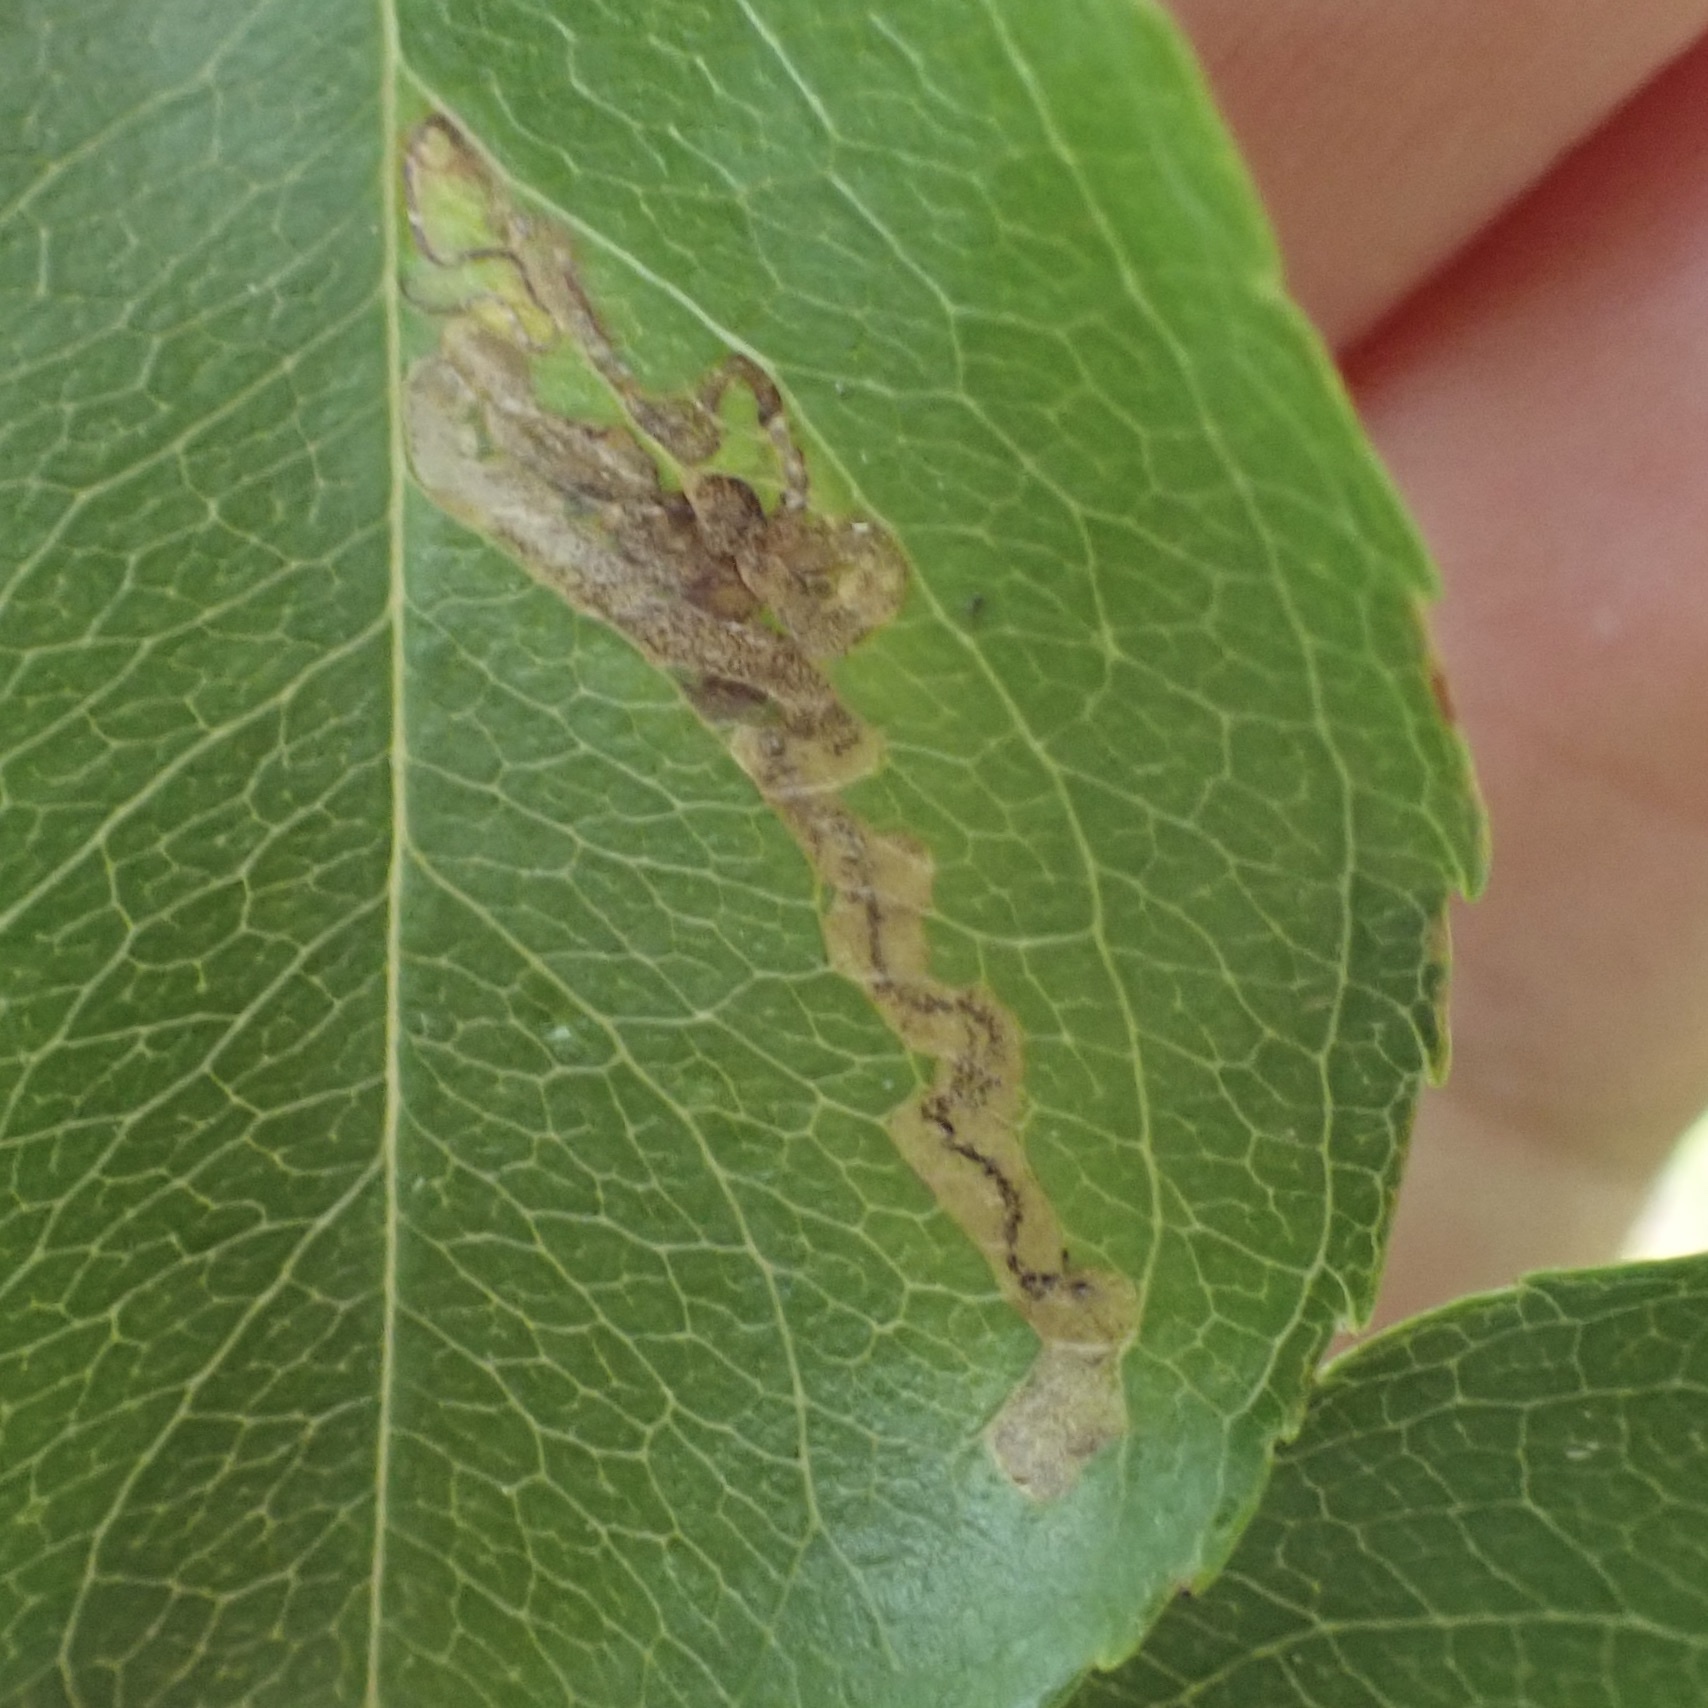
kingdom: Animalia
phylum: Arthropoda
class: Insecta
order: Lepidoptera
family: Nepticulidae
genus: Stigmella
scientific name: Stigmella prunifoliella
